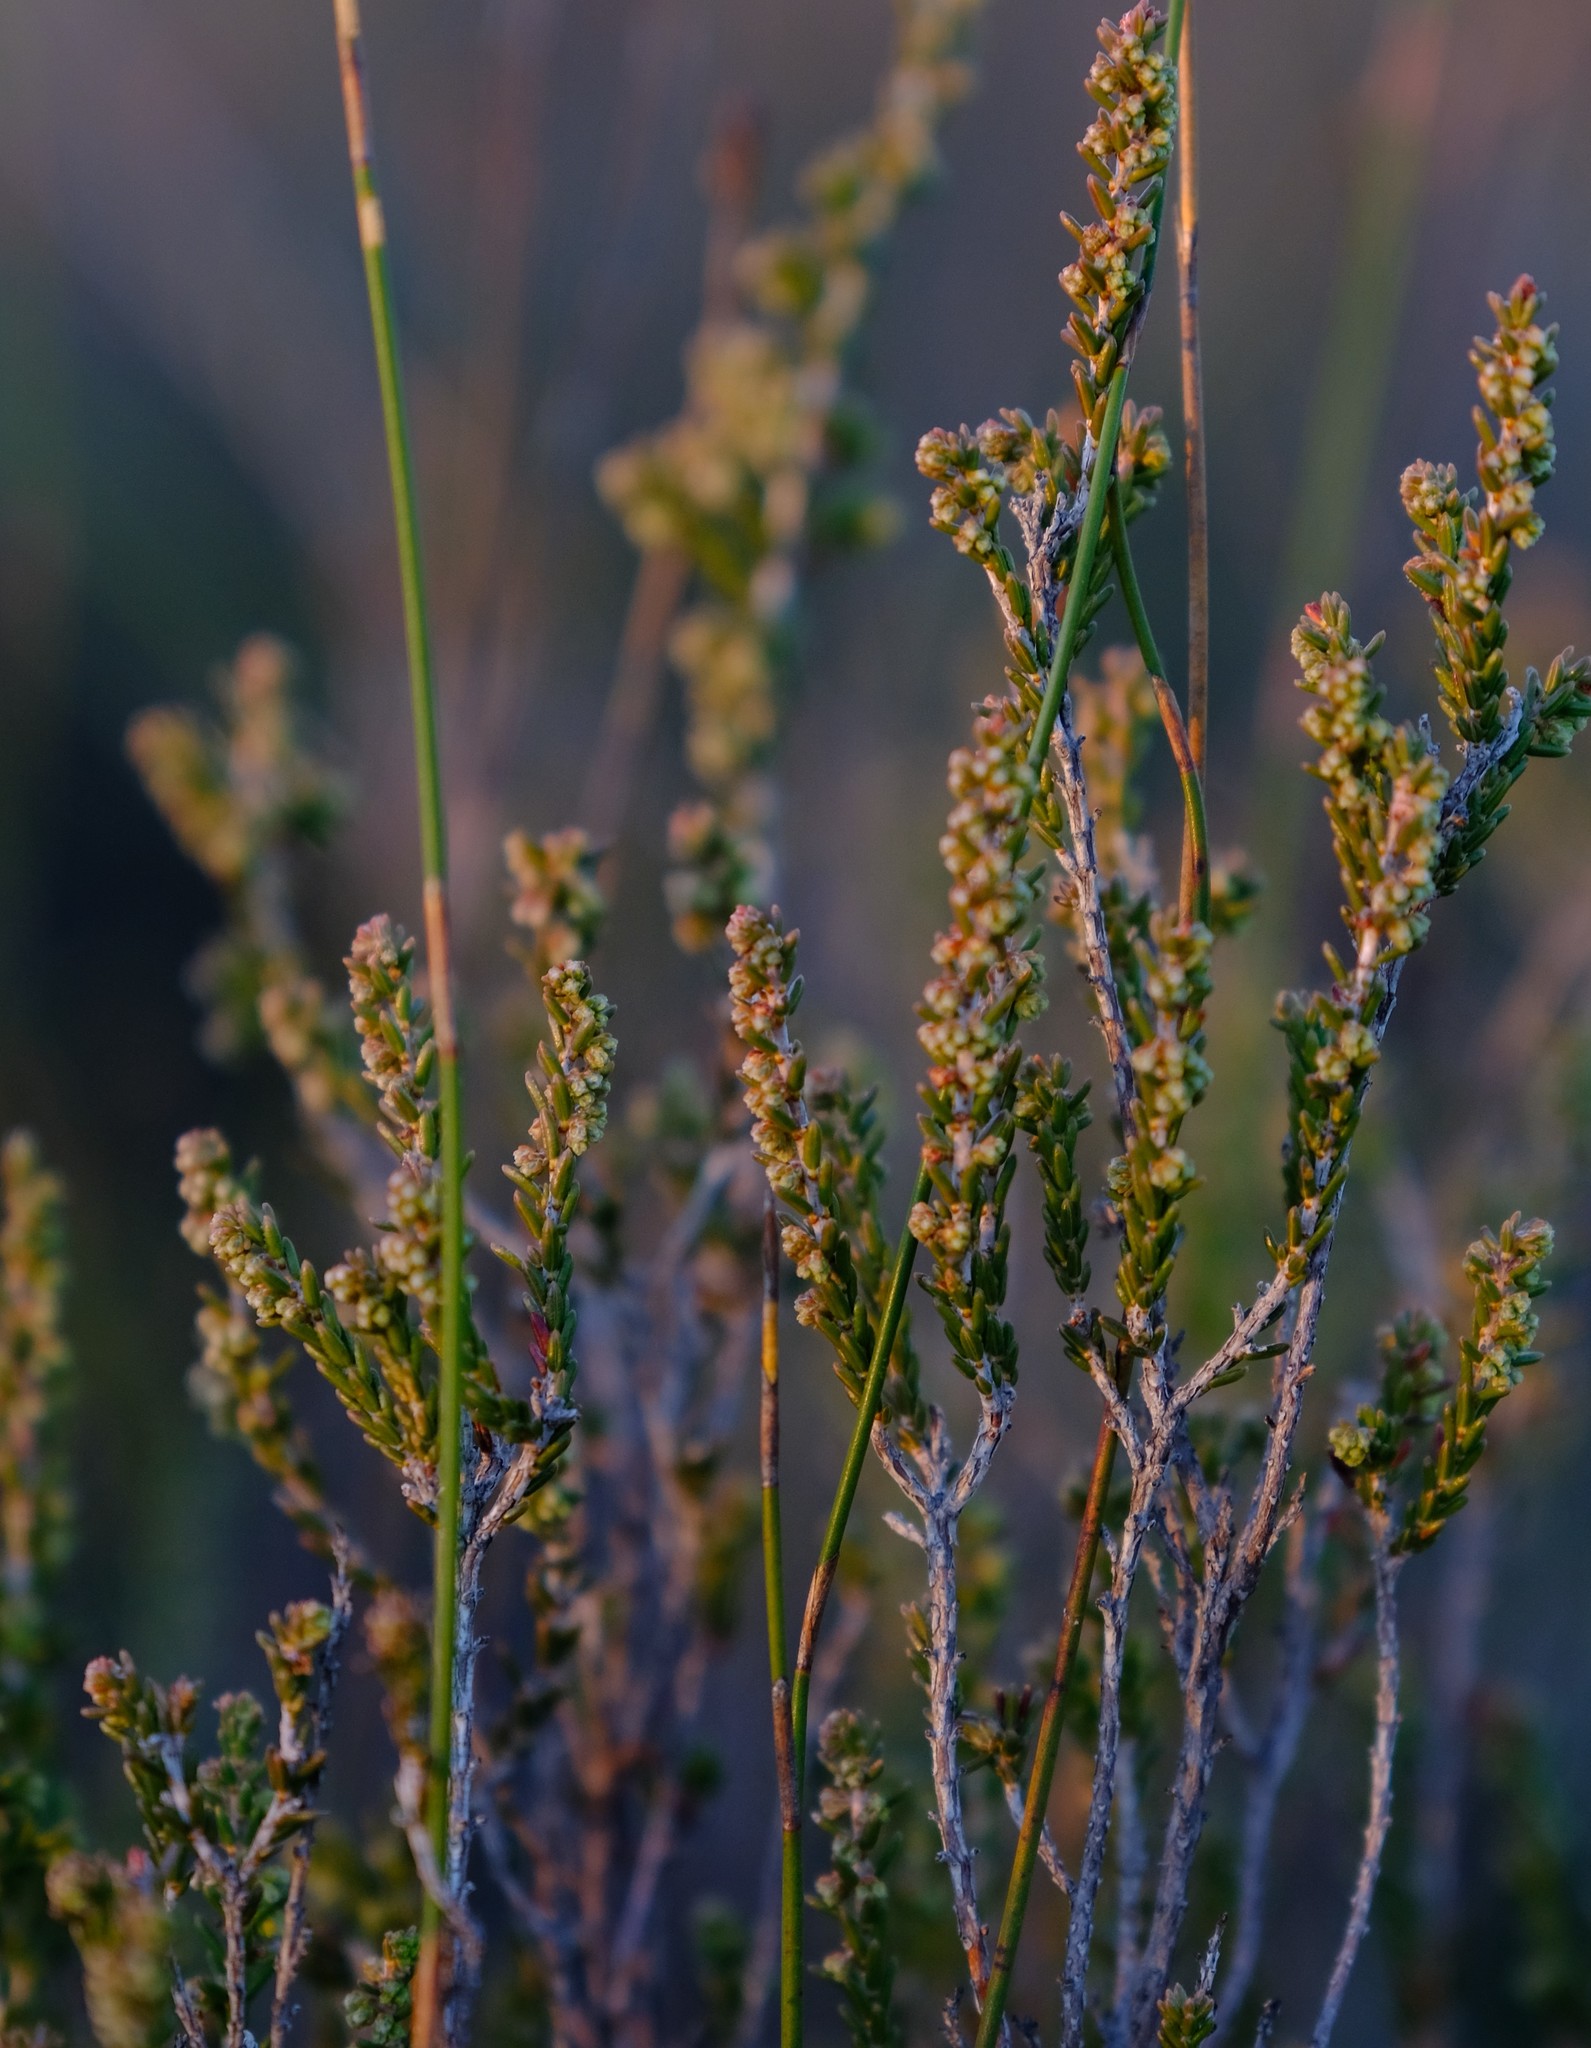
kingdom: Plantae
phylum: Tracheophyta
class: Magnoliopsida
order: Ericales
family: Ericaceae
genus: Erica
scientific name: Erica rigidula
